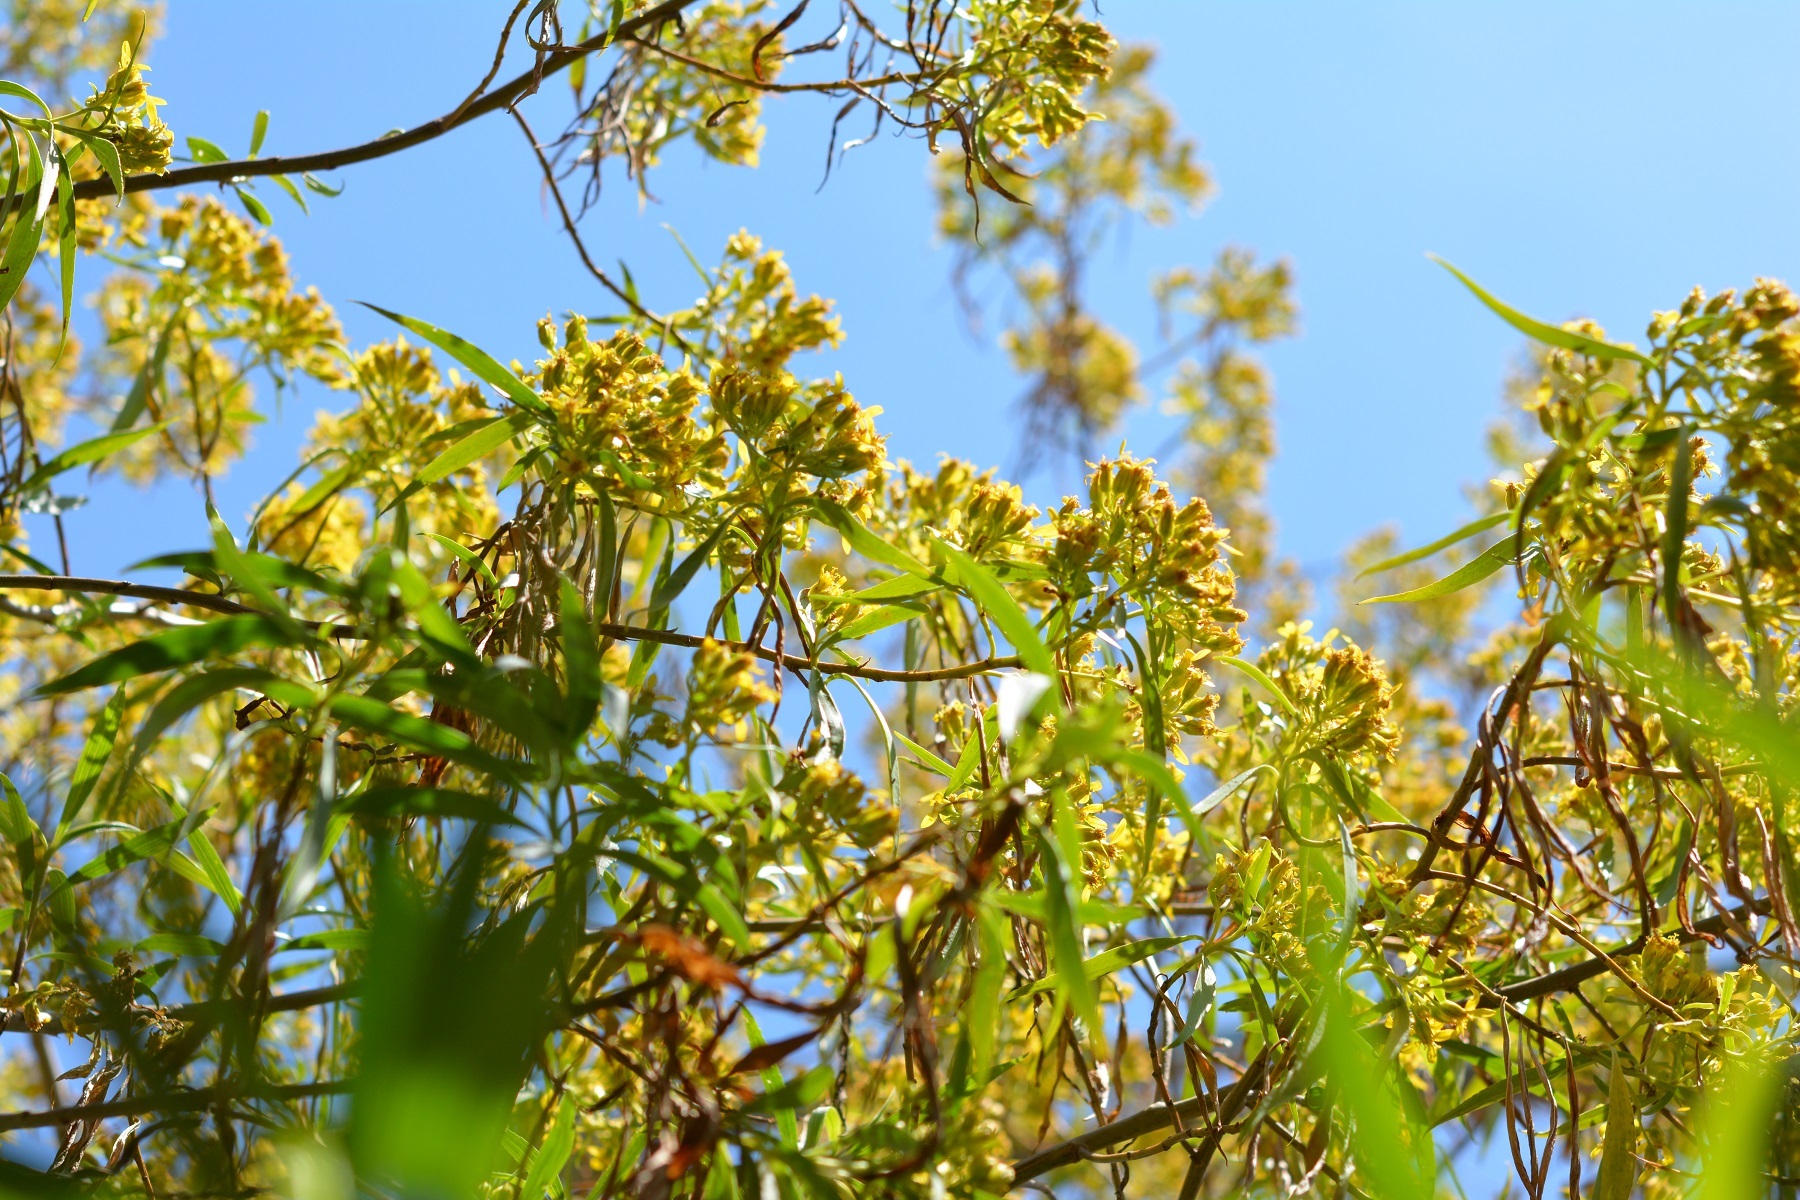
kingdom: Plantae
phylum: Tracheophyta
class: Magnoliopsida
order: Asterales
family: Asteraceae
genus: Barkleyanthus
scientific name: Barkleyanthus salicifolius
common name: Willow ragwort
